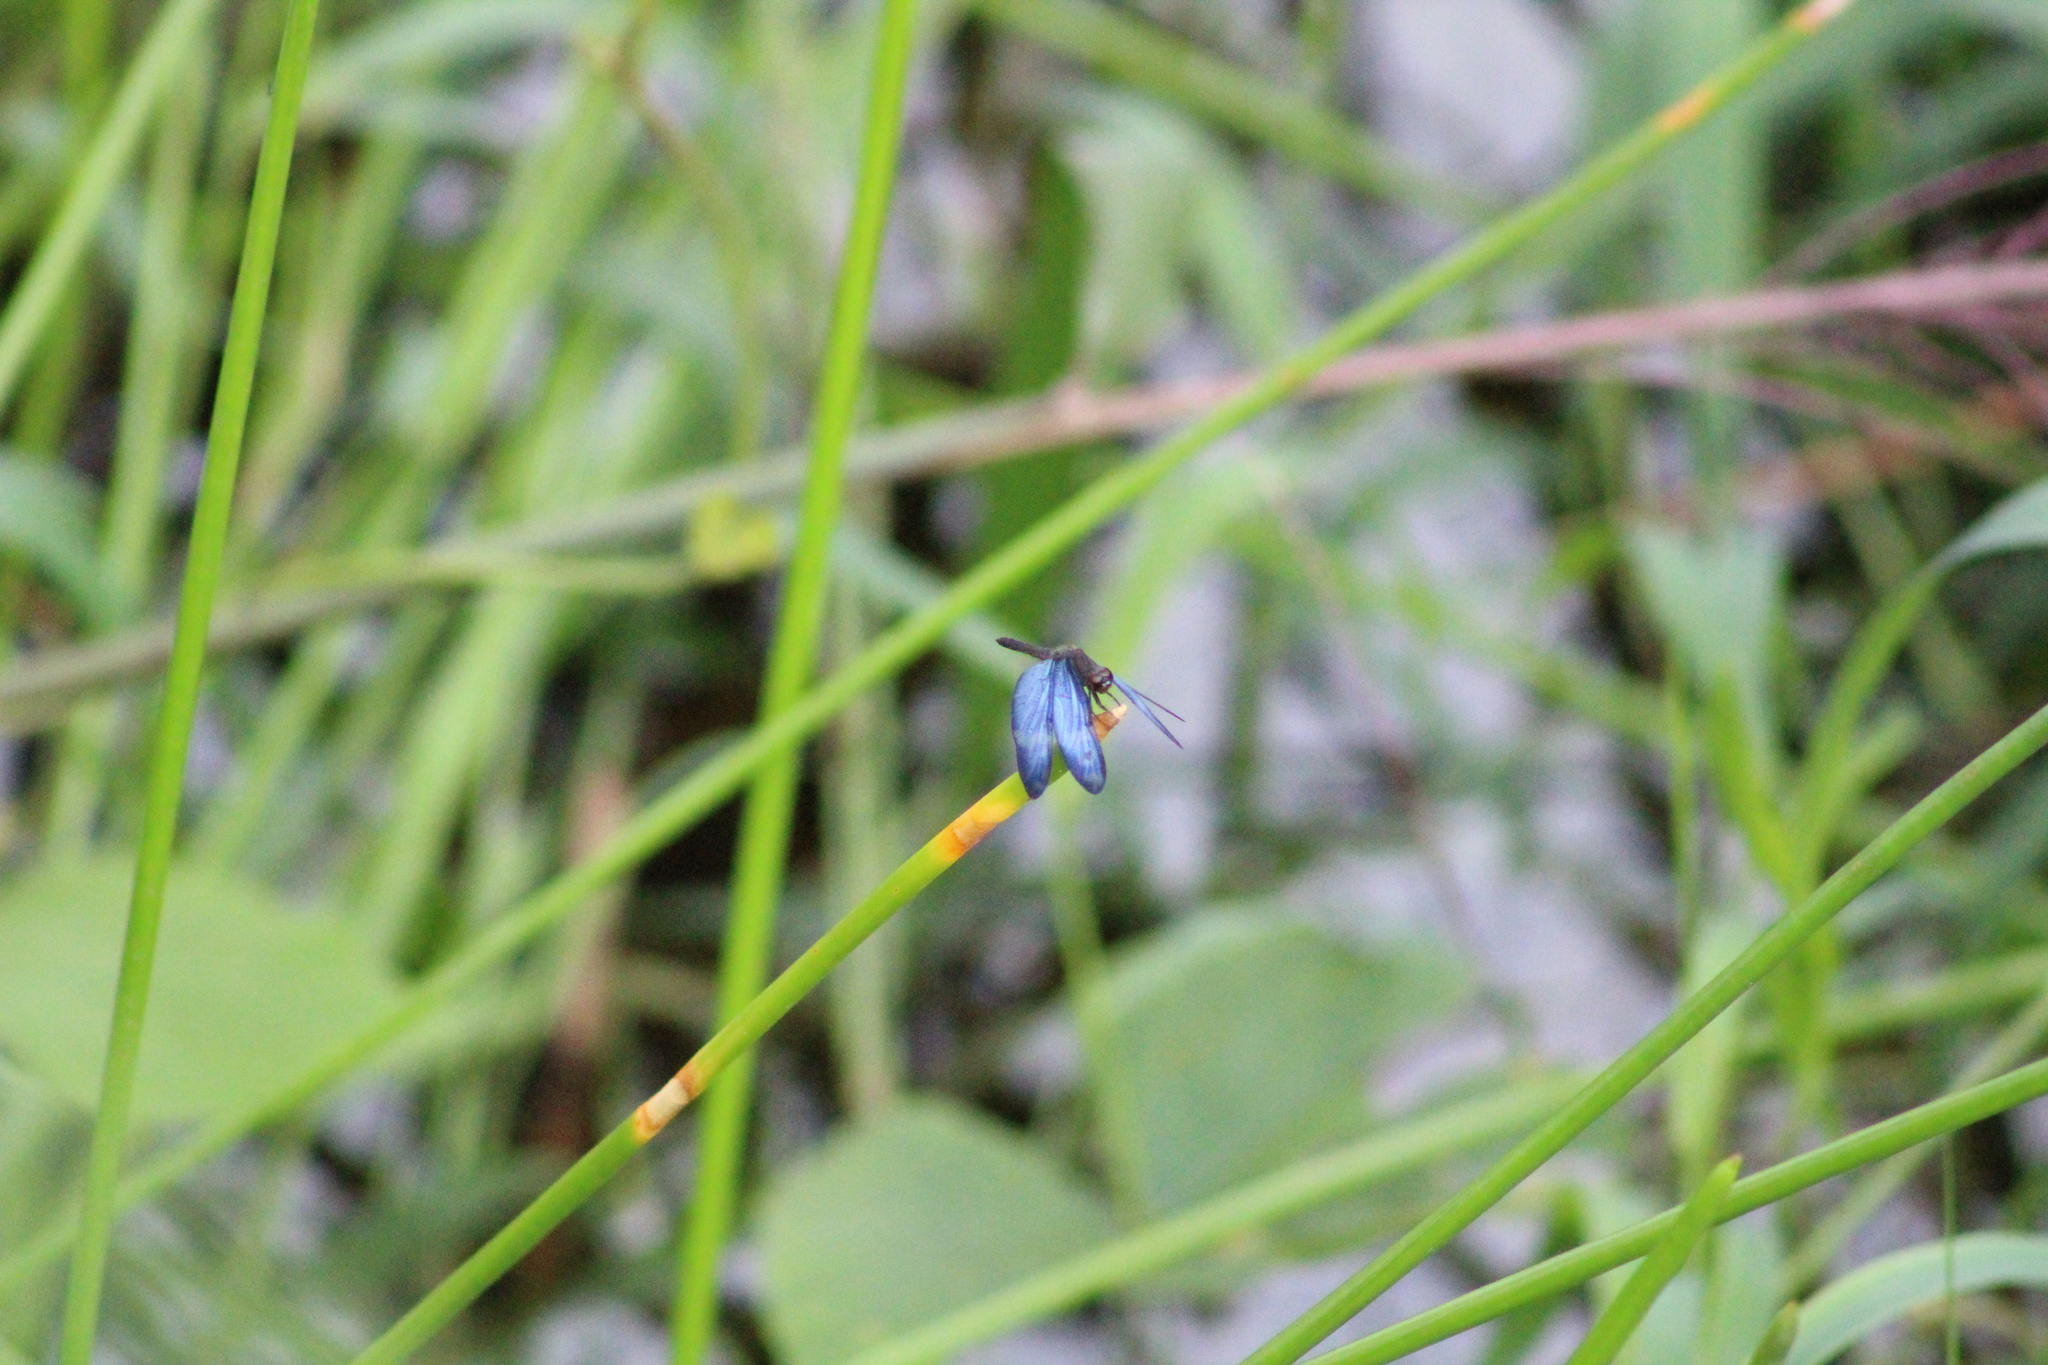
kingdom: Animalia
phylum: Arthropoda
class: Insecta
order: Odonata
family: Libellulidae
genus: Zenithoptera
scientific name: Zenithoptera lanei
